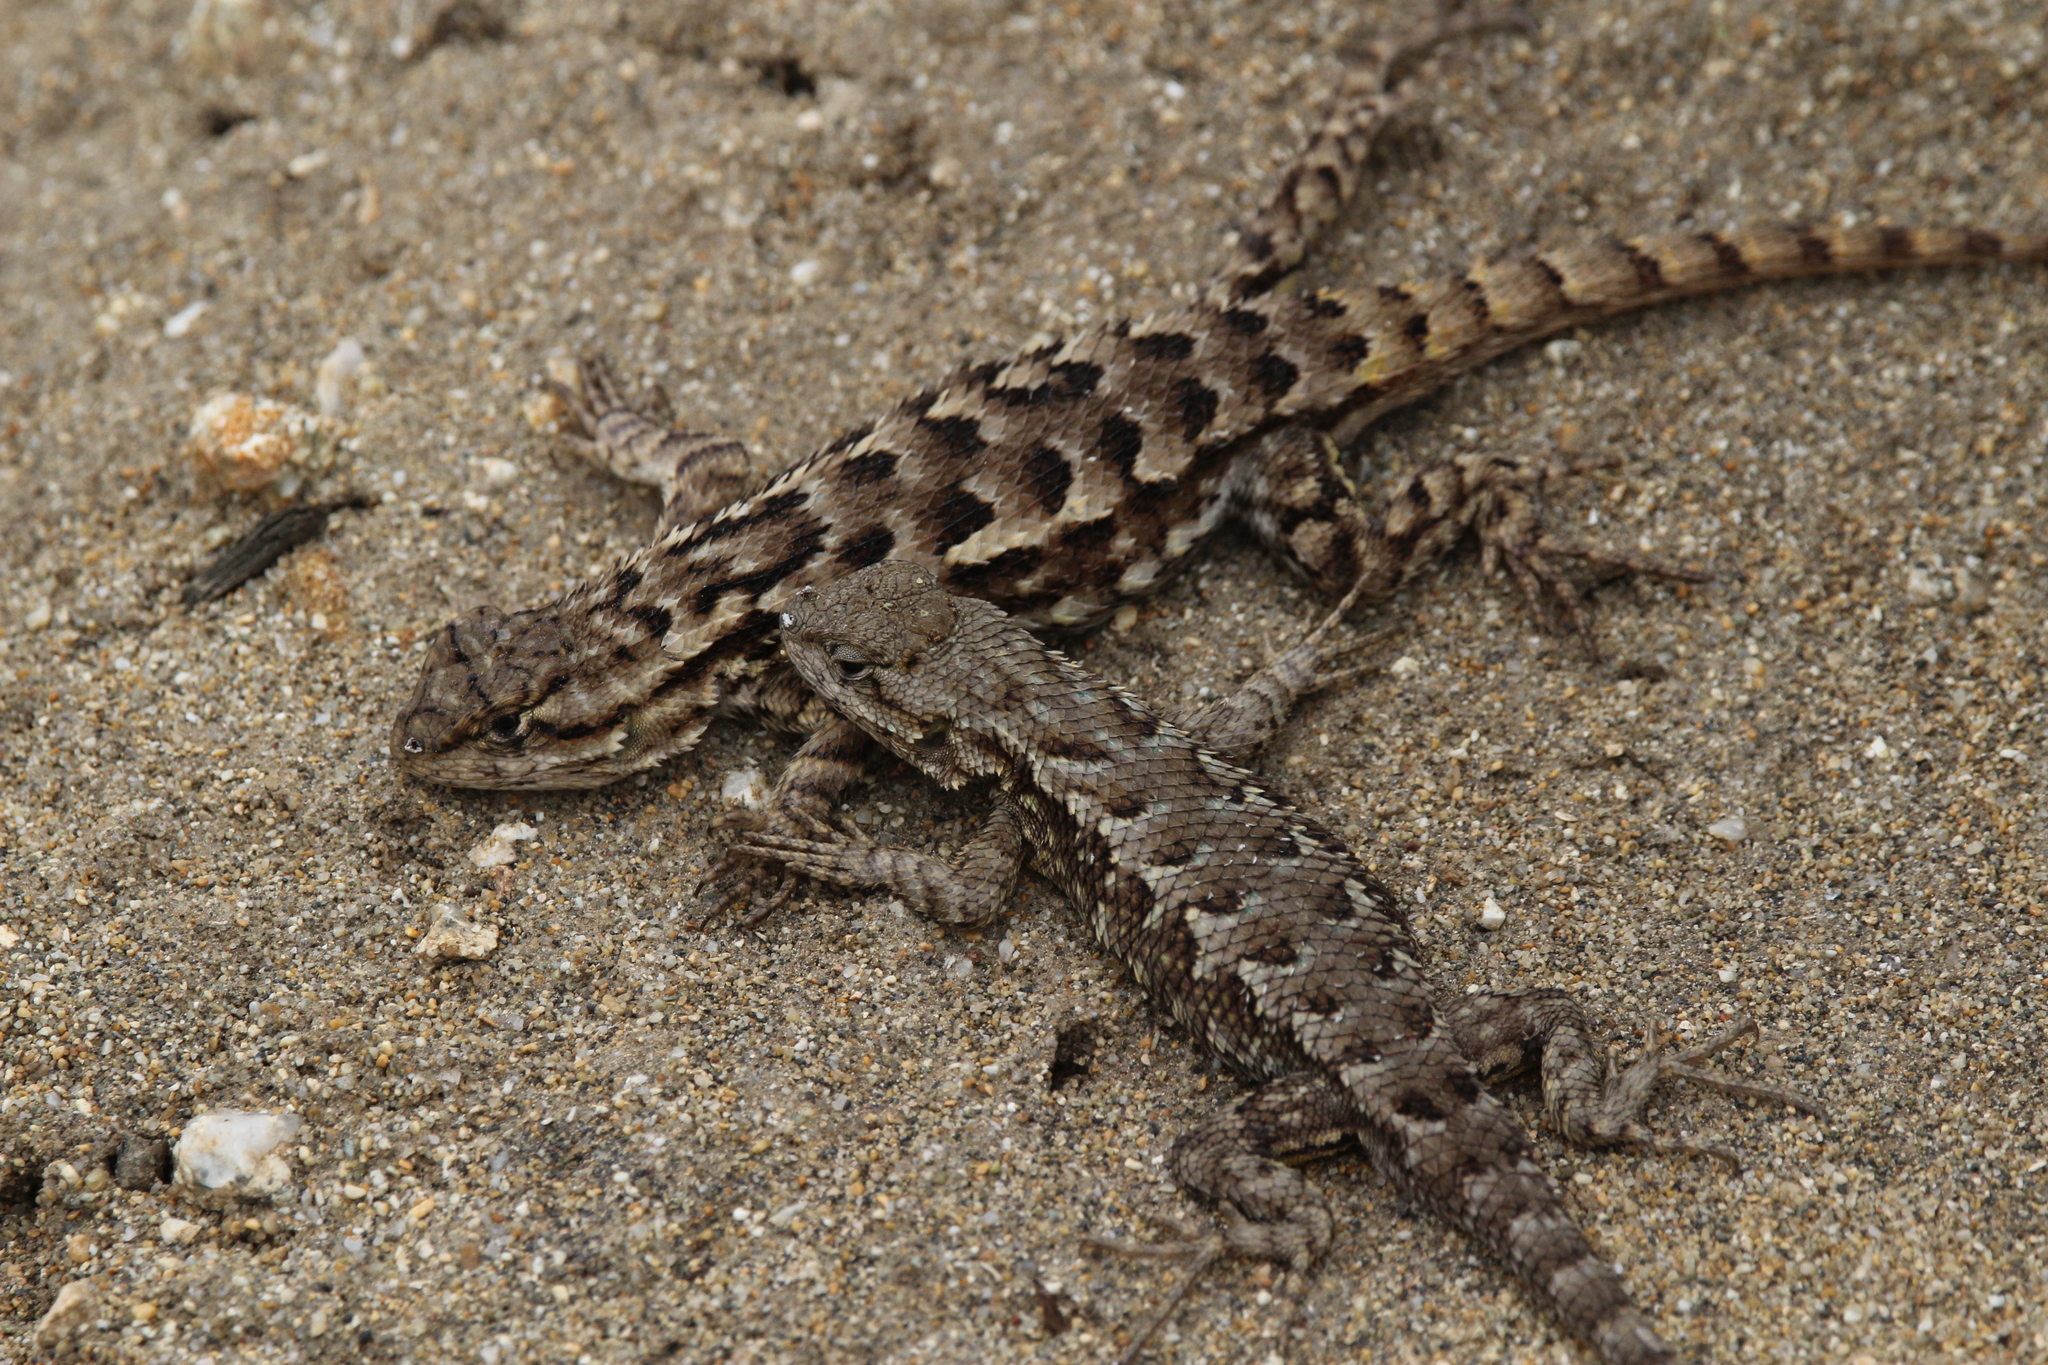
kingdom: Animalia
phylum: Chordata
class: Squamata
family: Phrynosomatidae
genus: Sceloporus
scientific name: Sceloporus occidentalis
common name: Western fence lizard
